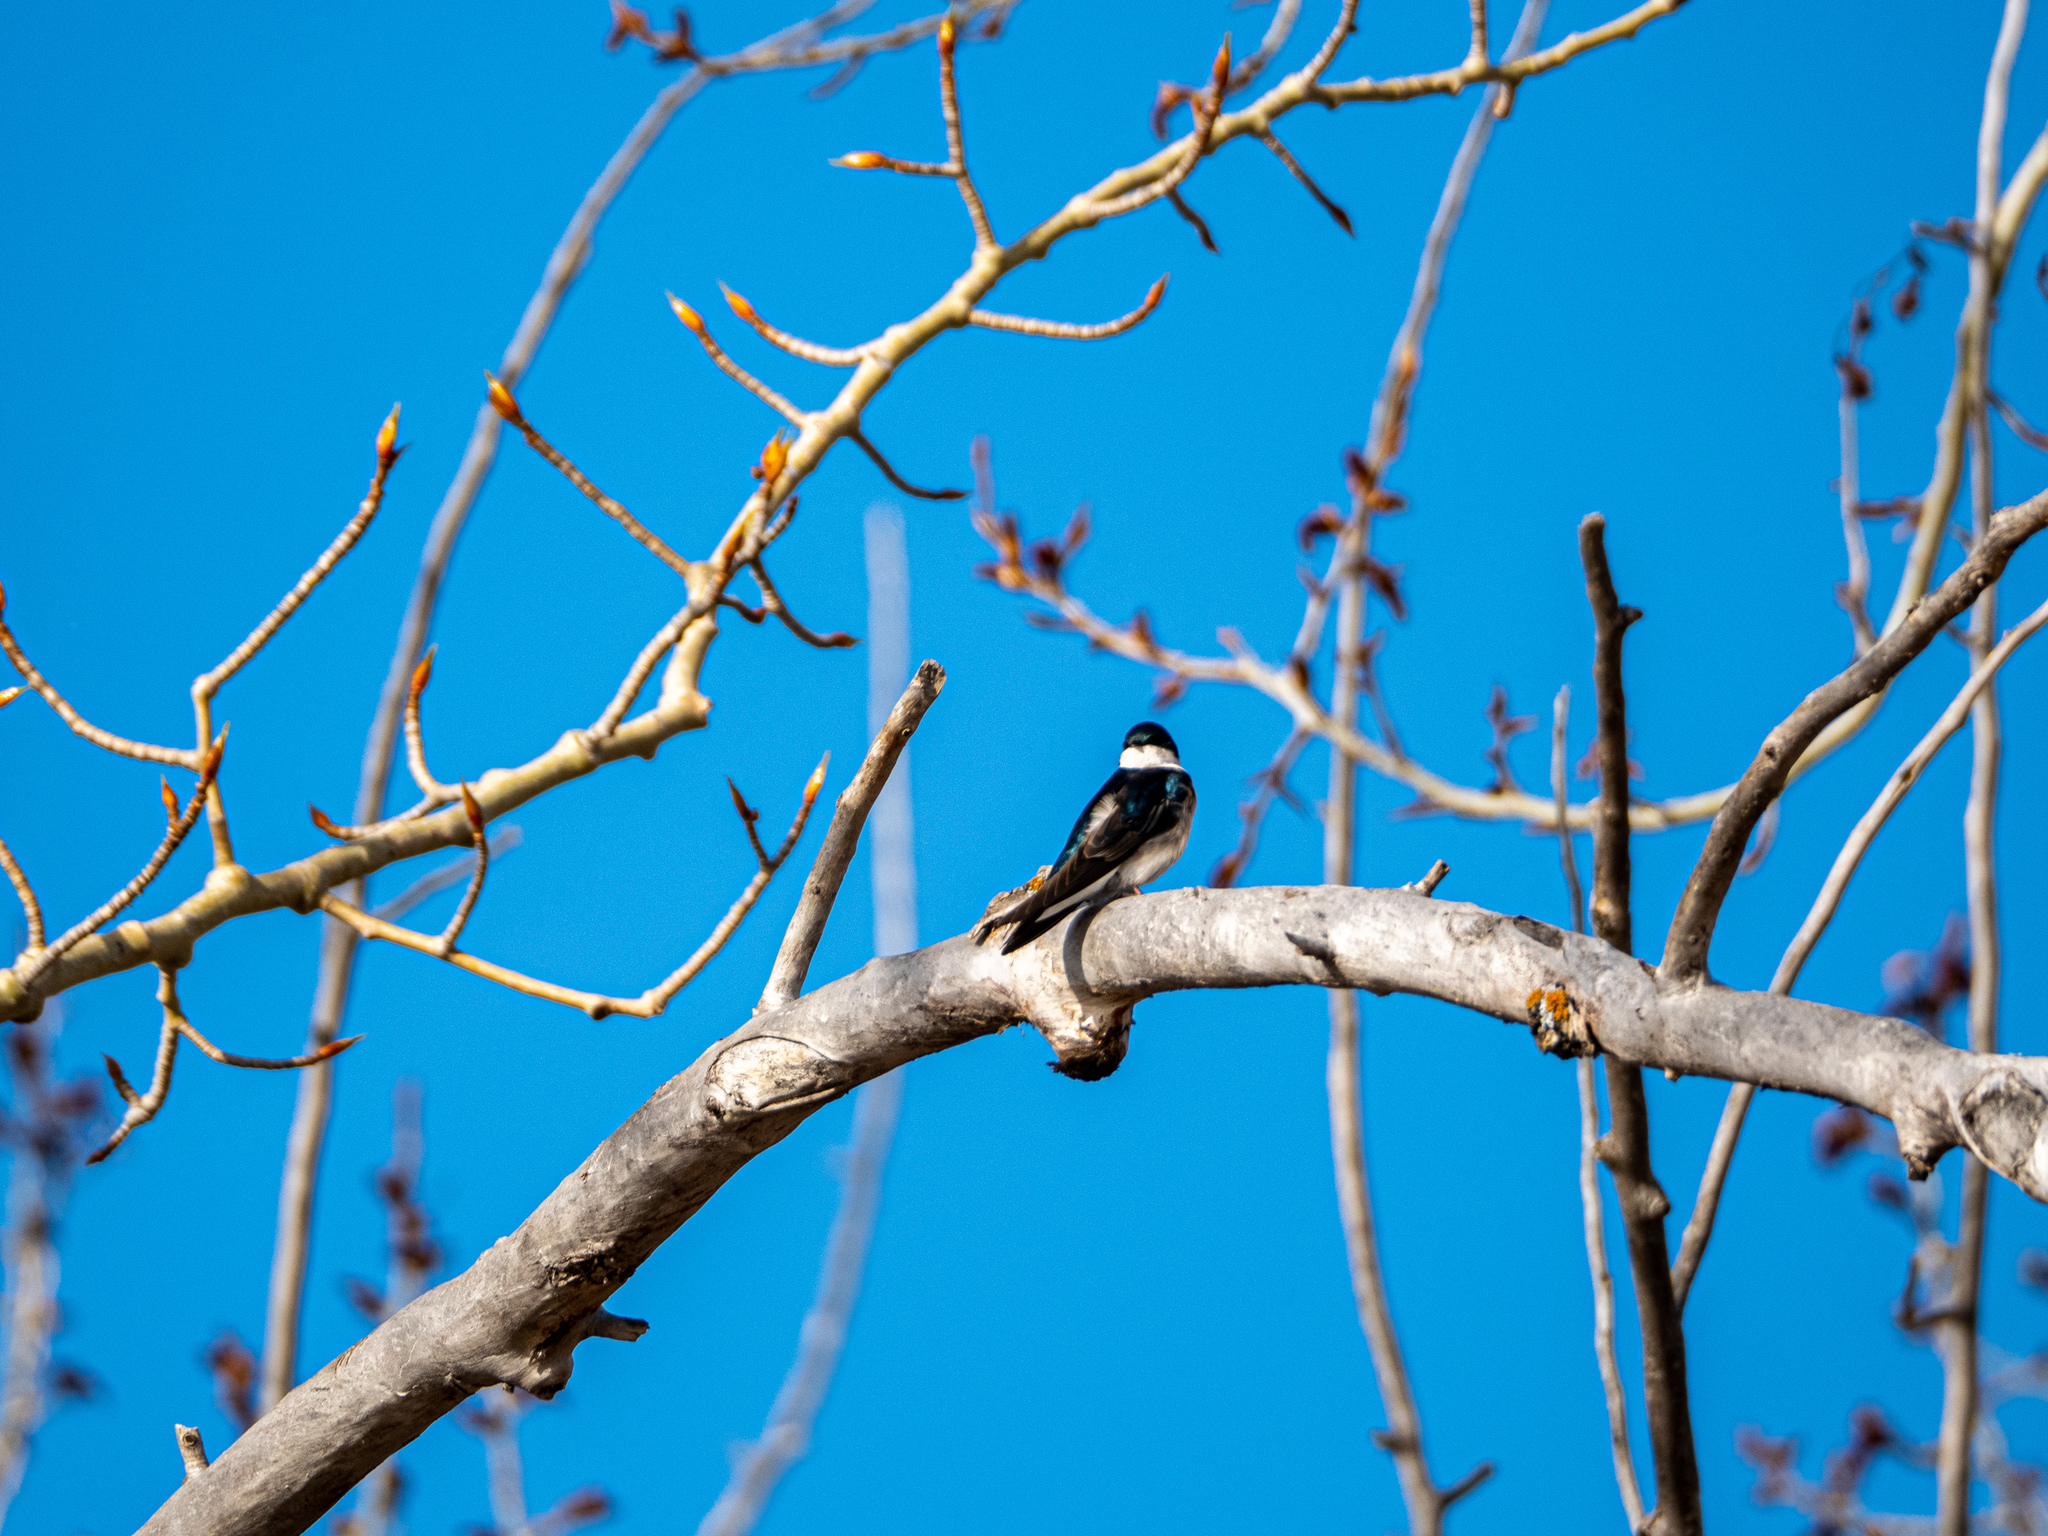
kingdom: Animalia
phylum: Chordata
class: Aves
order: Passeriformes
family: Hirundinidae
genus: Tachycineta
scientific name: Tachycineta bicolor
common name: Tree swallow
